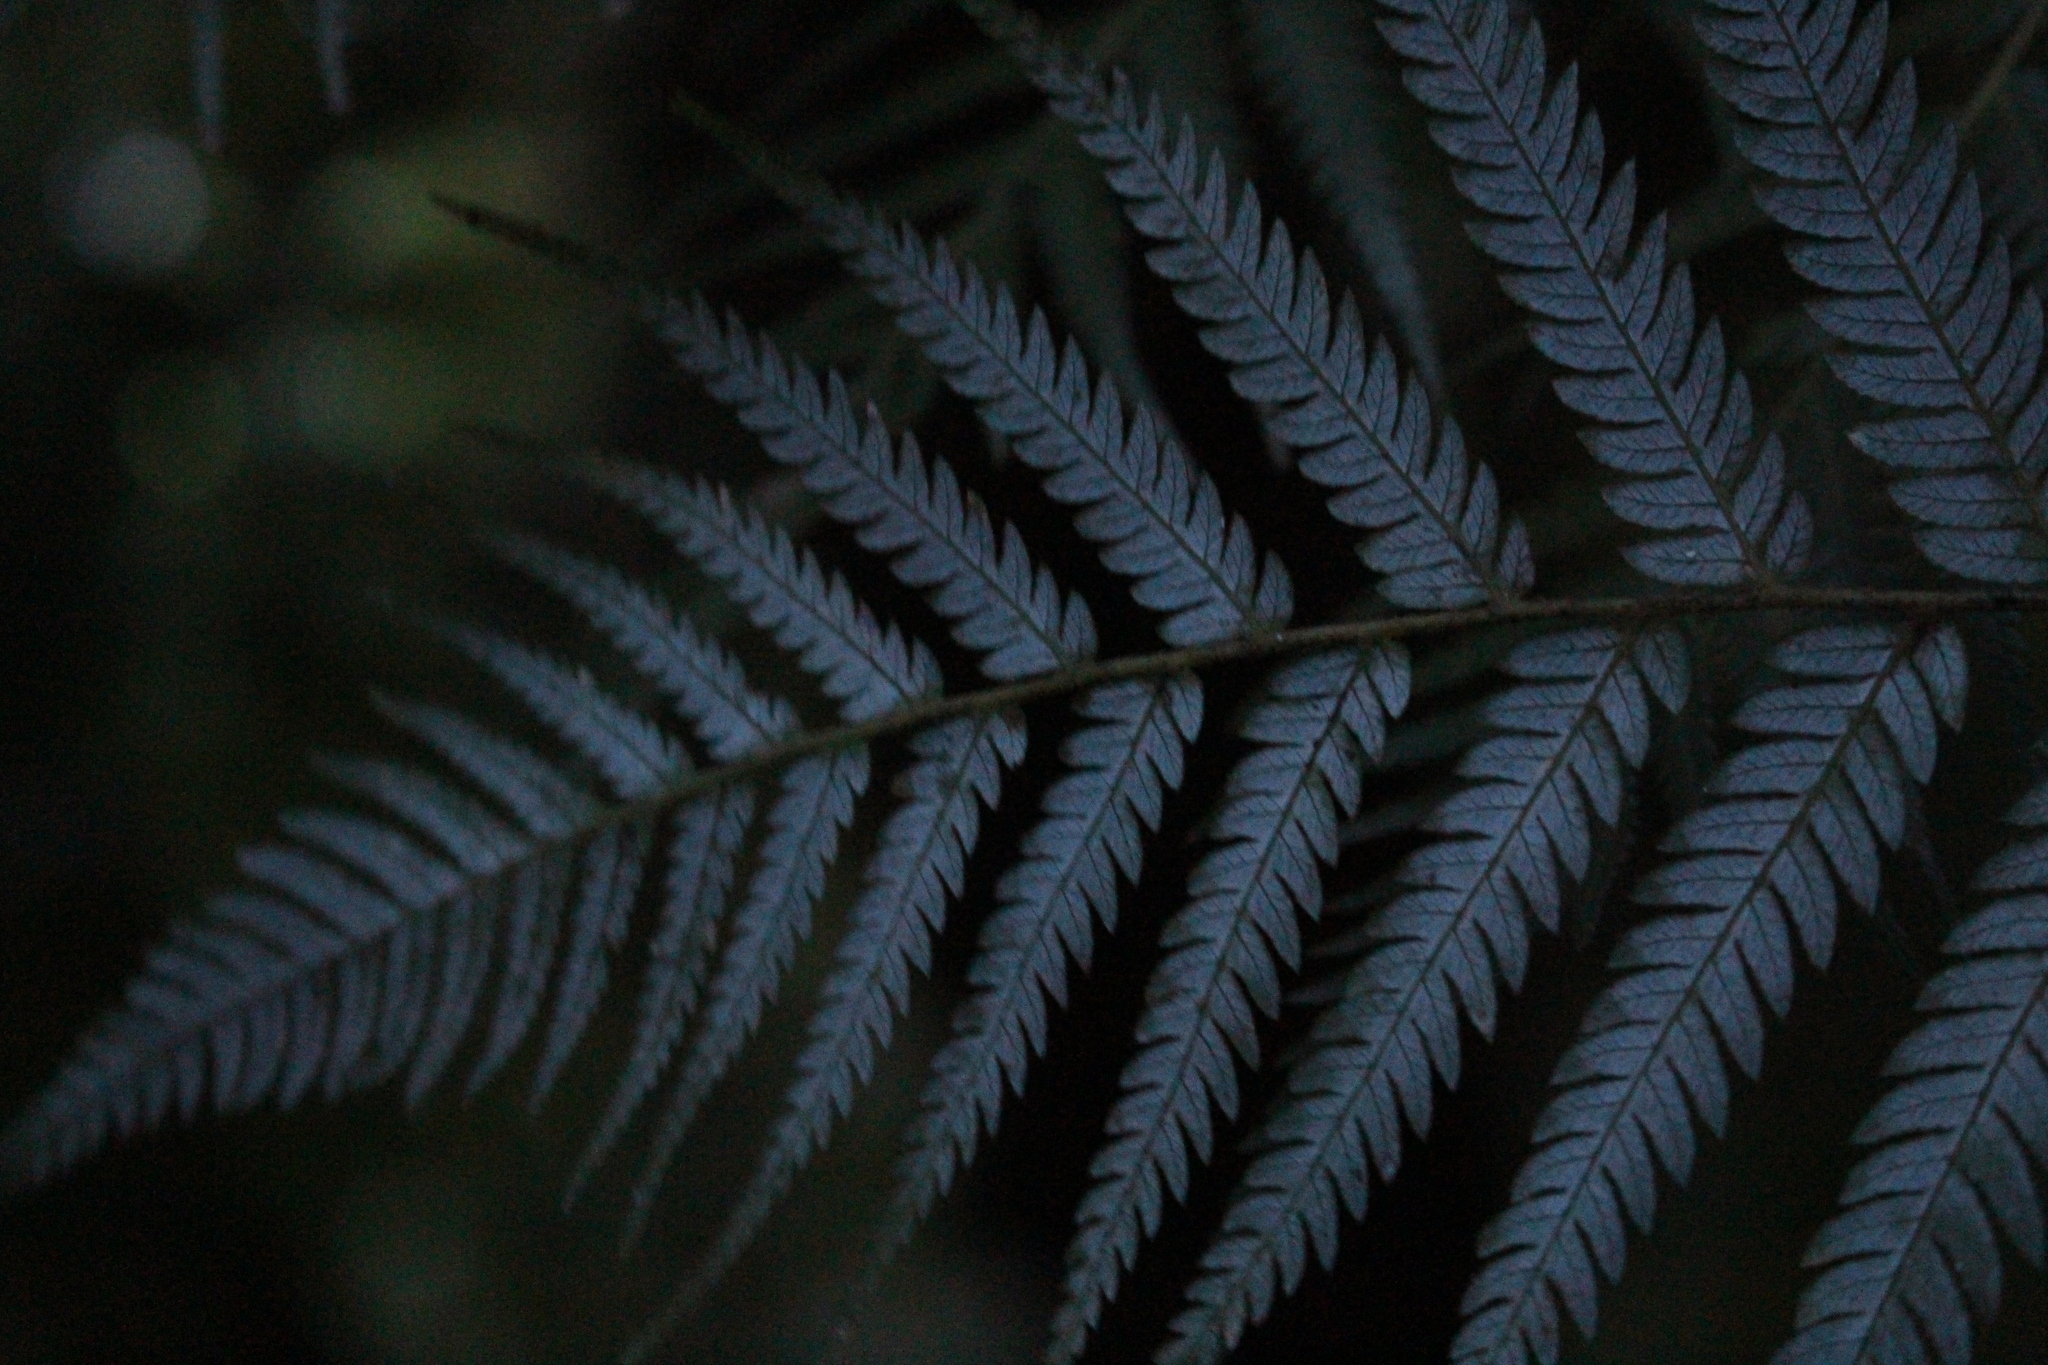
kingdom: Plantae
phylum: Tracheophyta
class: Polypodiopsida
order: Cyatheales
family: Cyatheaceae
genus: Alsophila
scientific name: Alsophila dealbata
